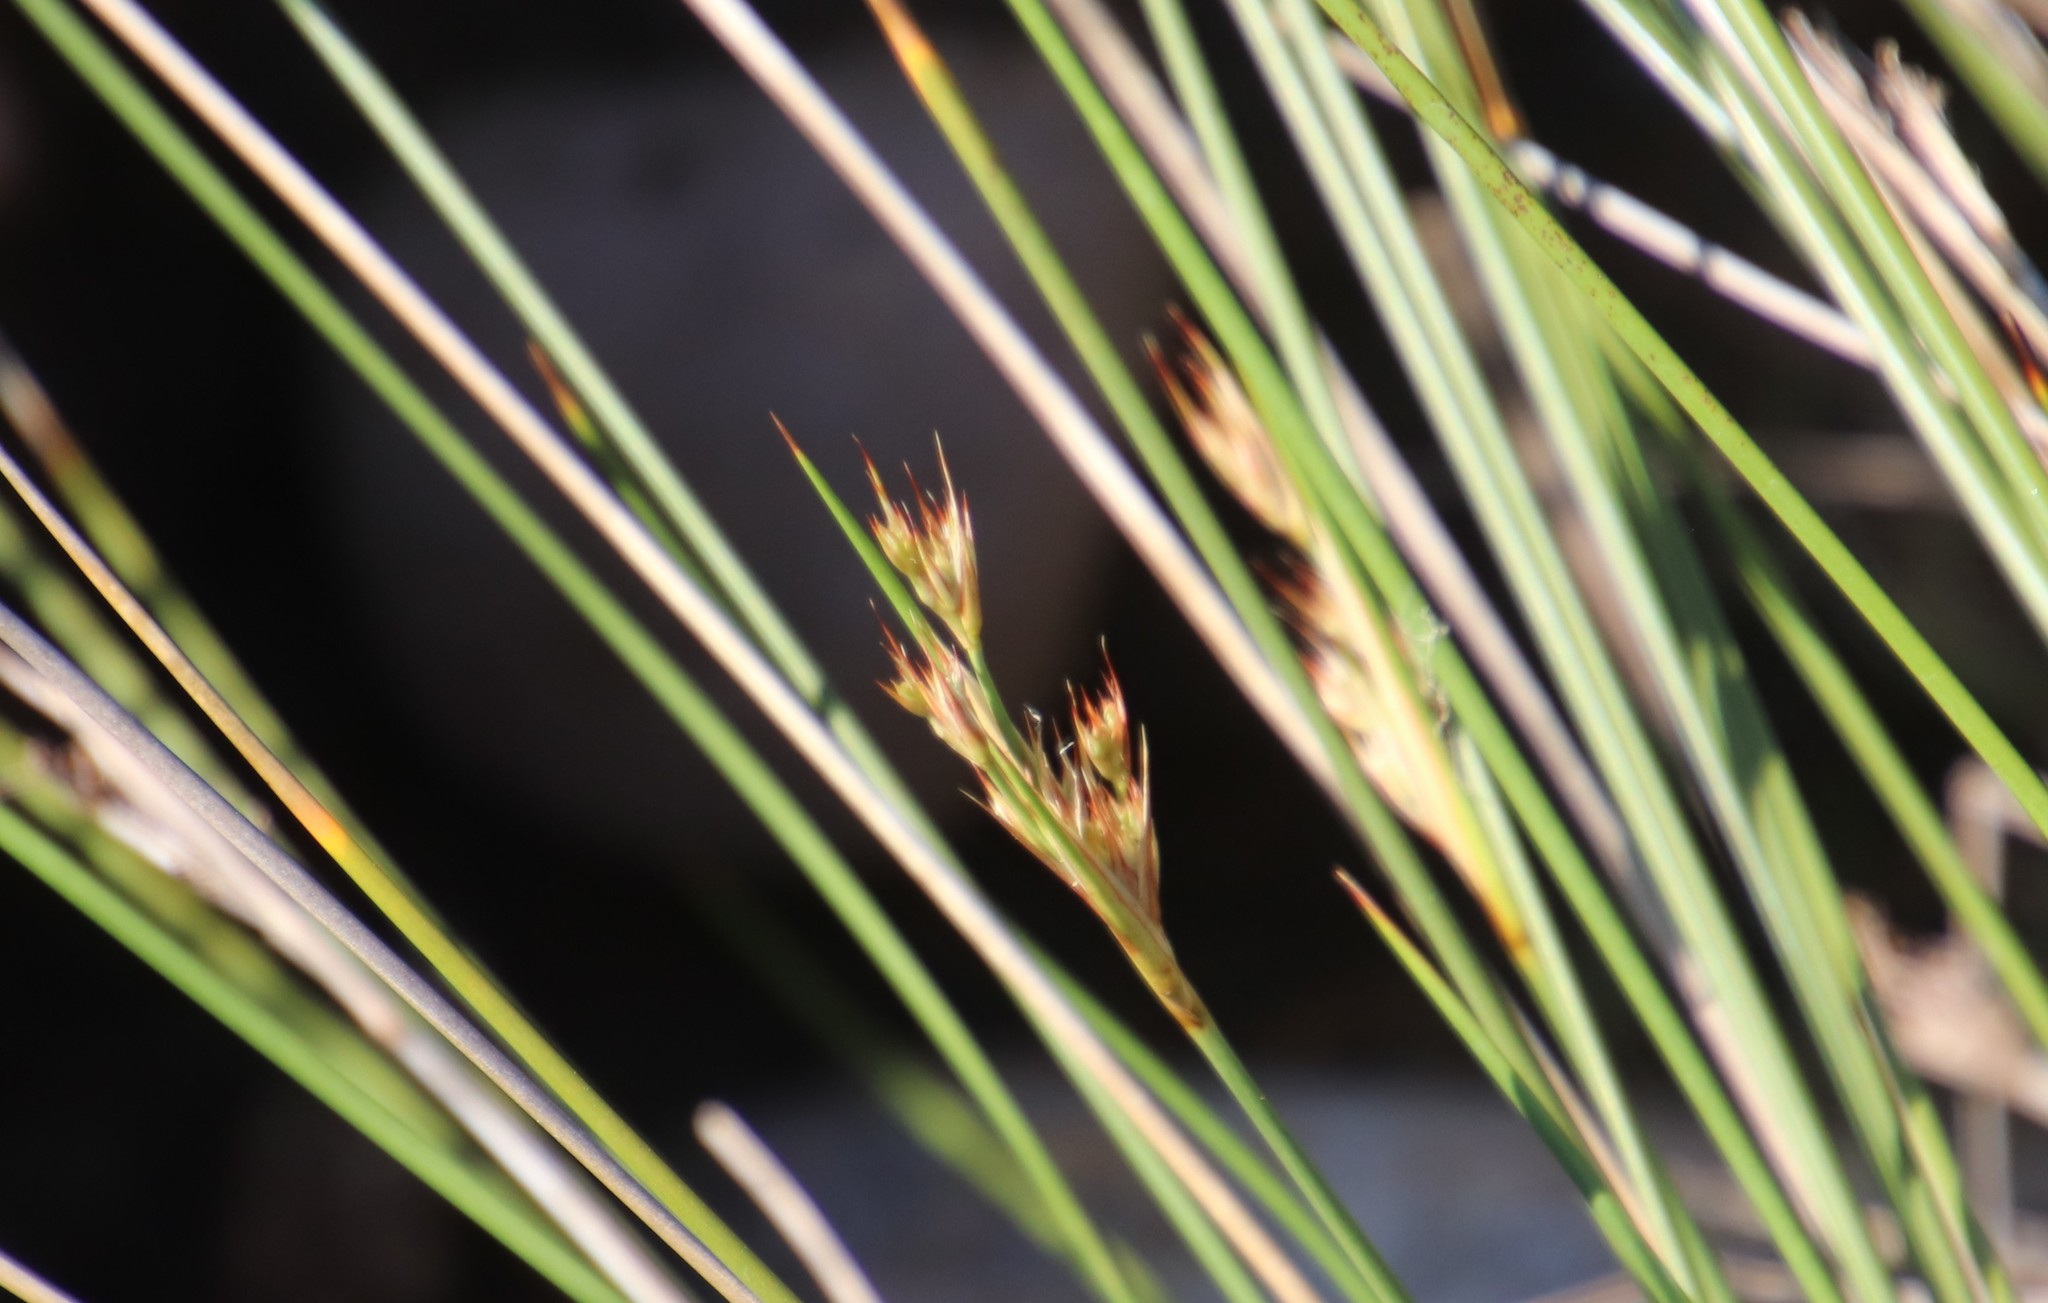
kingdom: Plantae
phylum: Tracheophyta
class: Liliopsida
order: Poales
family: Juncaceae
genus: Juncus
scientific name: Juncus acutus
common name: Sharp rush
